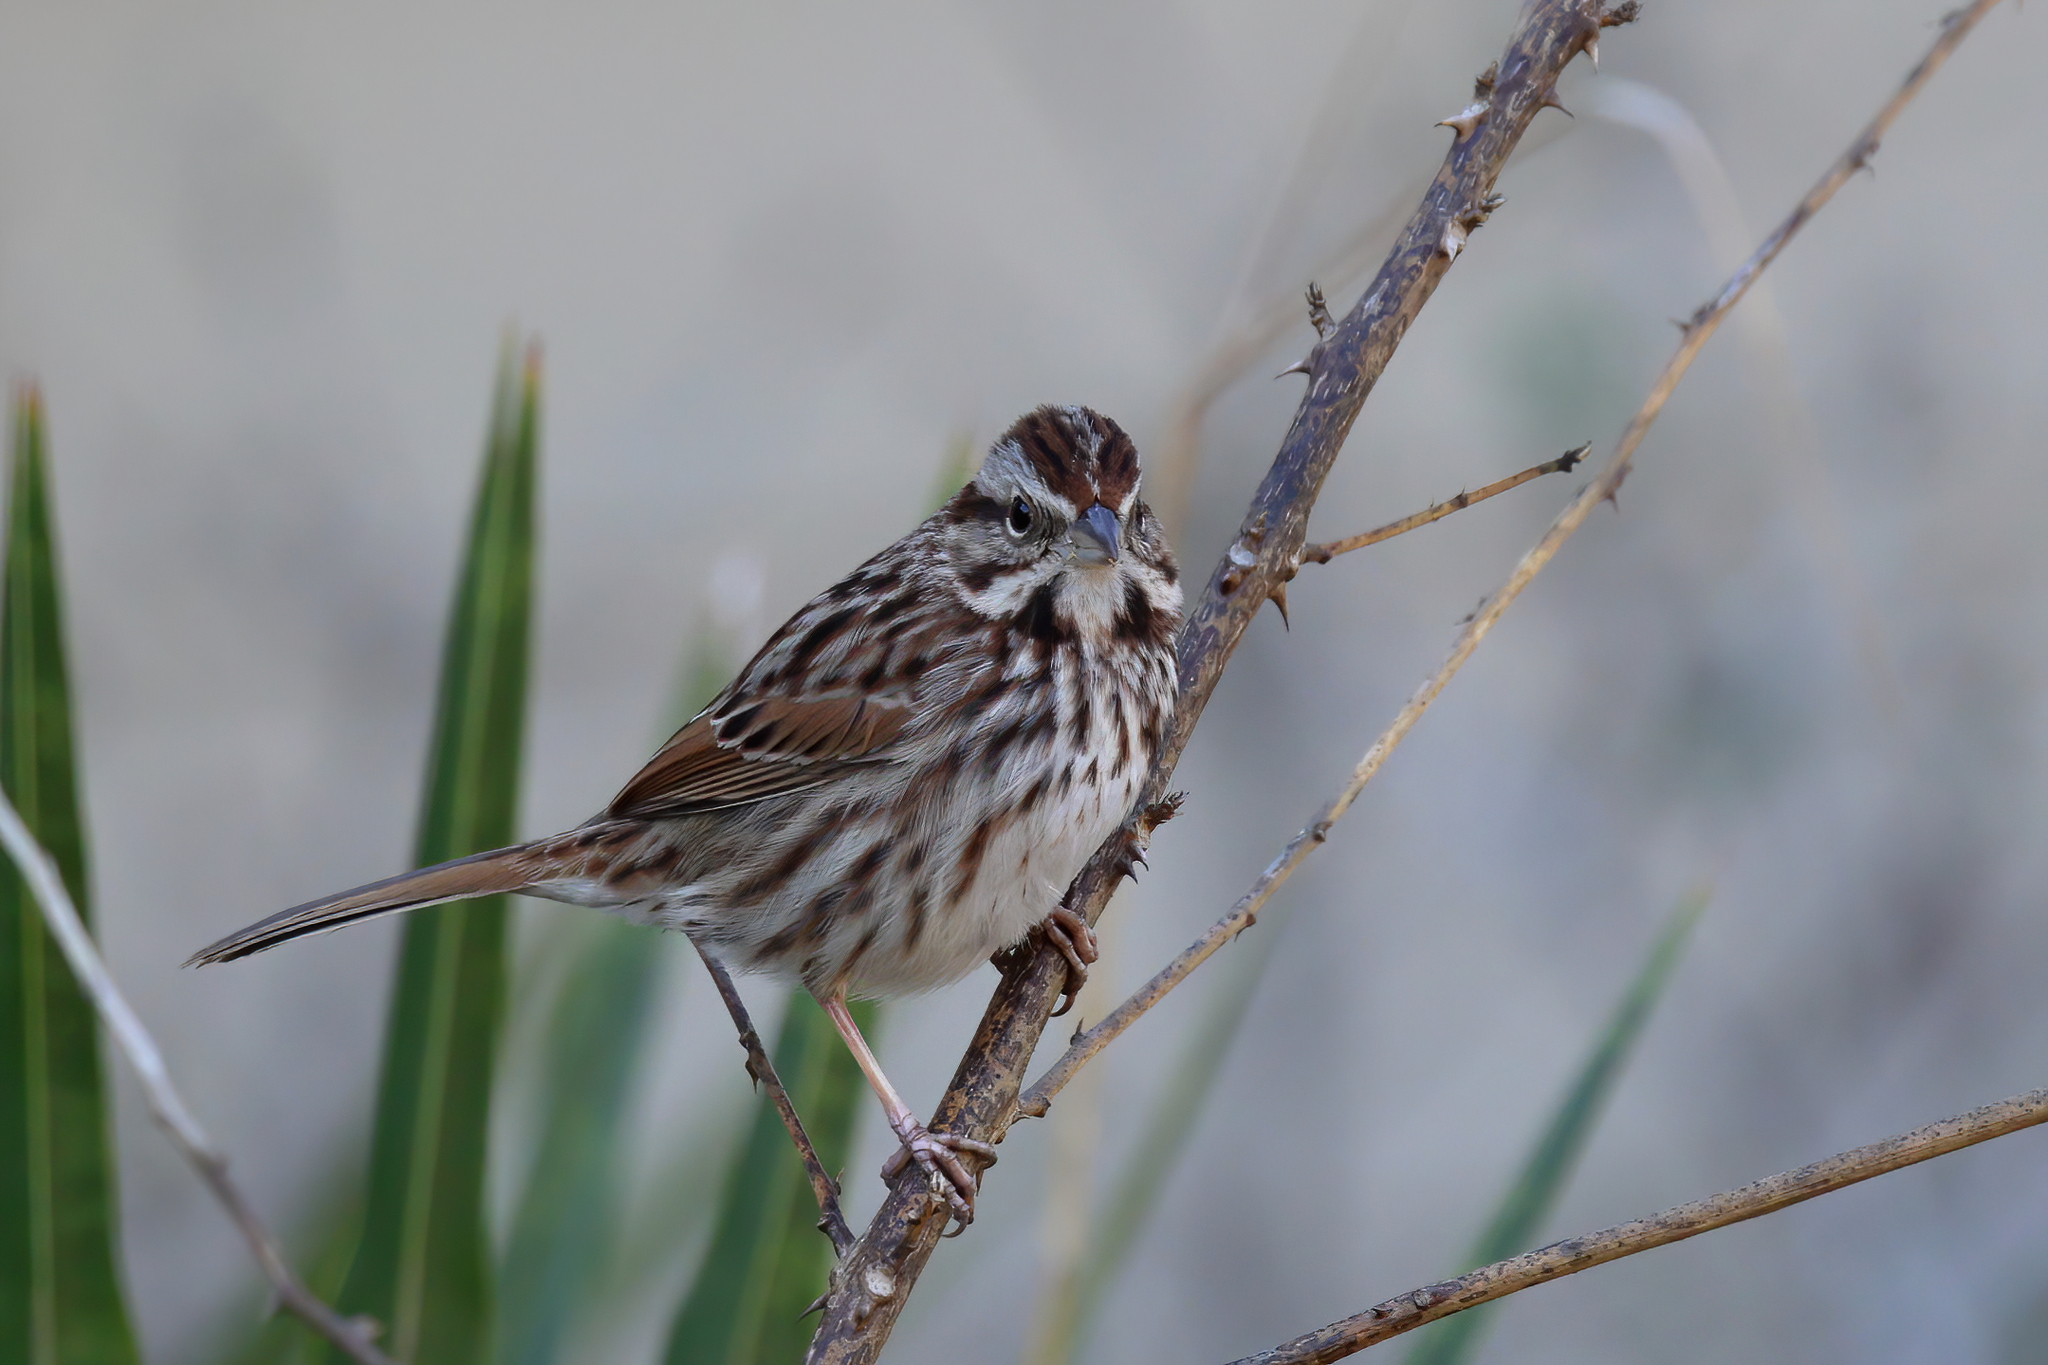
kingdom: Animalia
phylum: Chordata
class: Aves
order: Passeriformes
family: Passerellidae
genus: Melospiza
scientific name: Melospiza melodia
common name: Song sparrow
